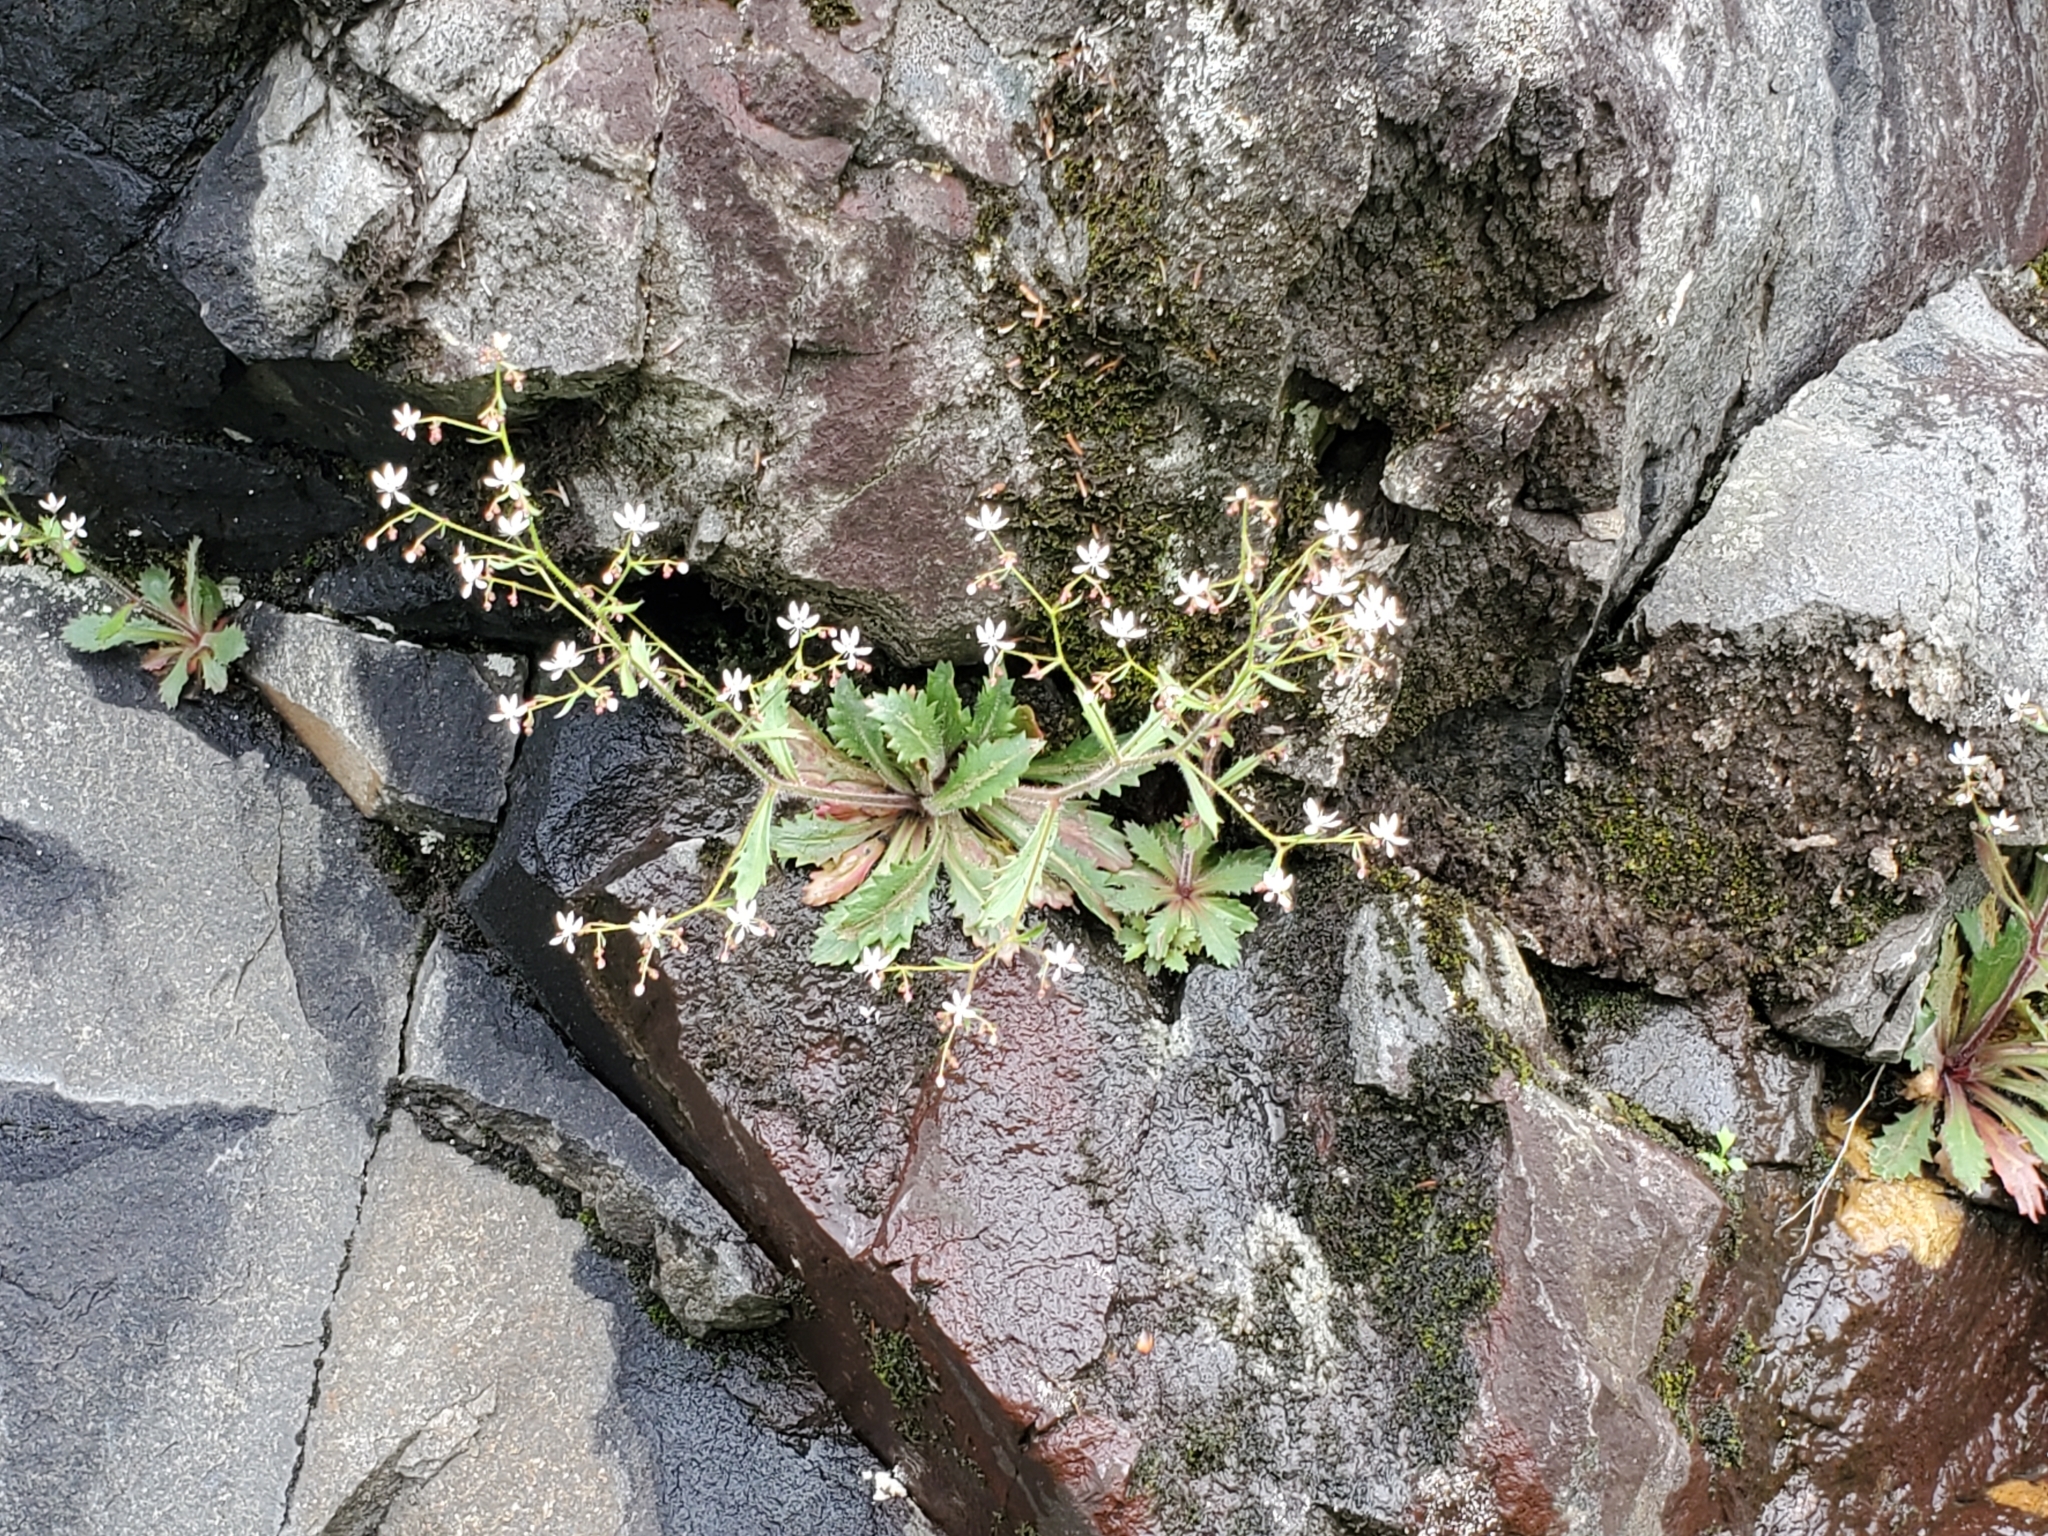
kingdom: Plantae
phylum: Tracheophyta
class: Magnoliopsida
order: Saxifragales
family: Saxifragaceae
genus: Micranthes
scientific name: Micranthes petiolaris
